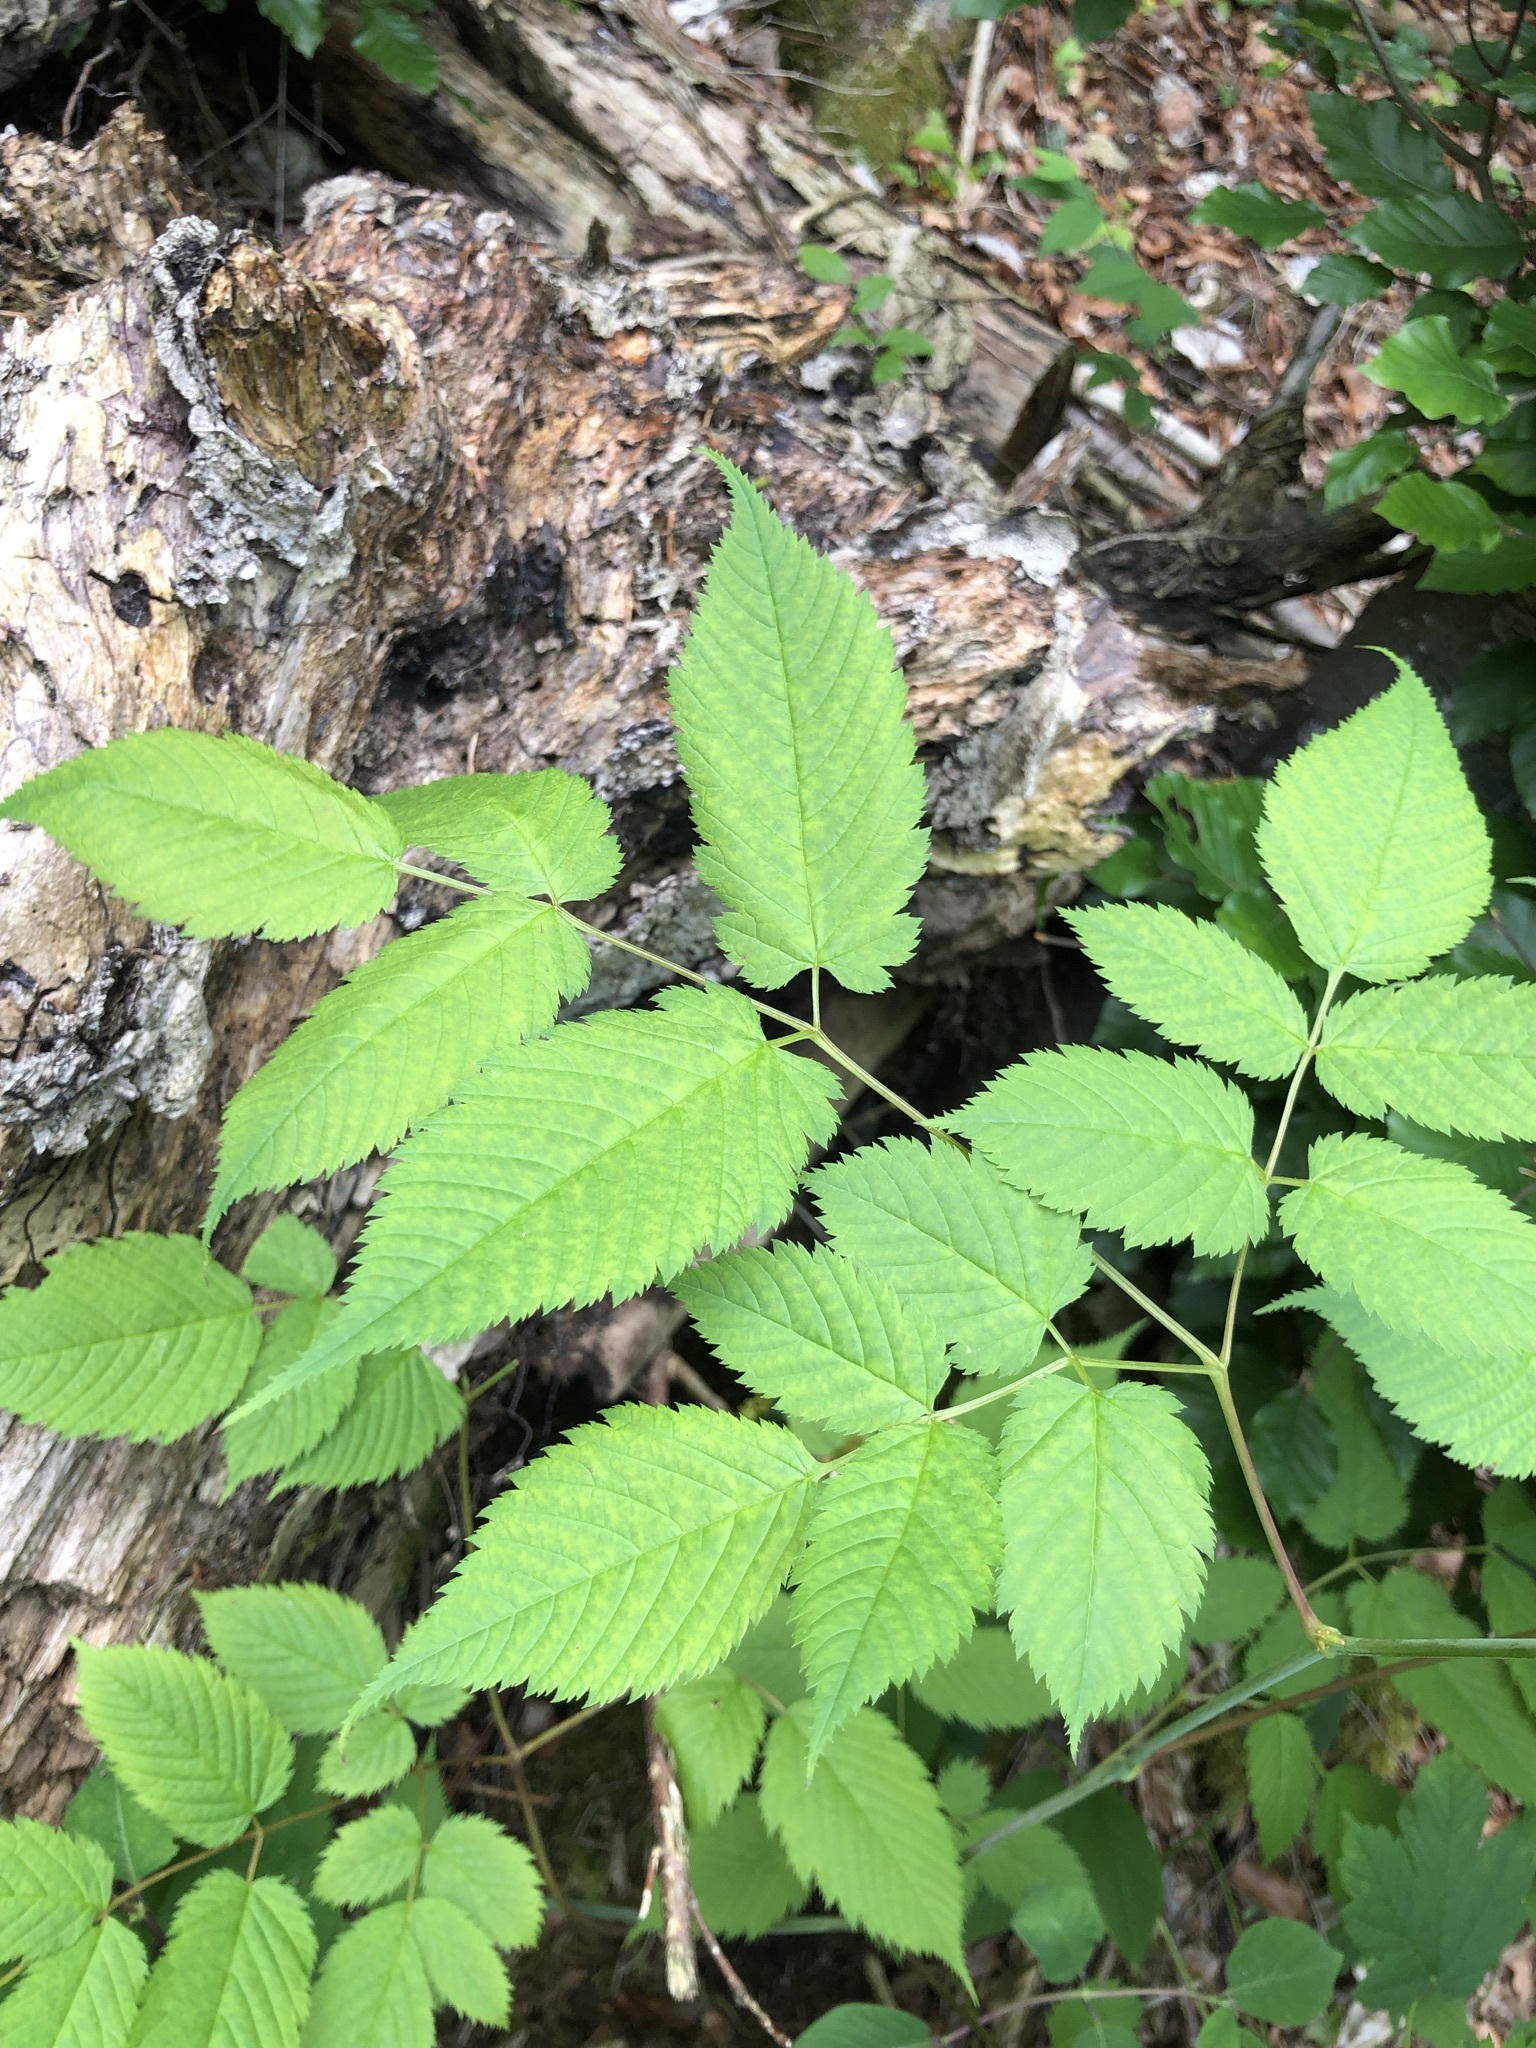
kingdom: Plantae
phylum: Tracheophyta
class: Magnoliopsida
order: Rosales
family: Rosaceae
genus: Aruncus
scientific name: Aruncus dioicus
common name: Buck's-beard
